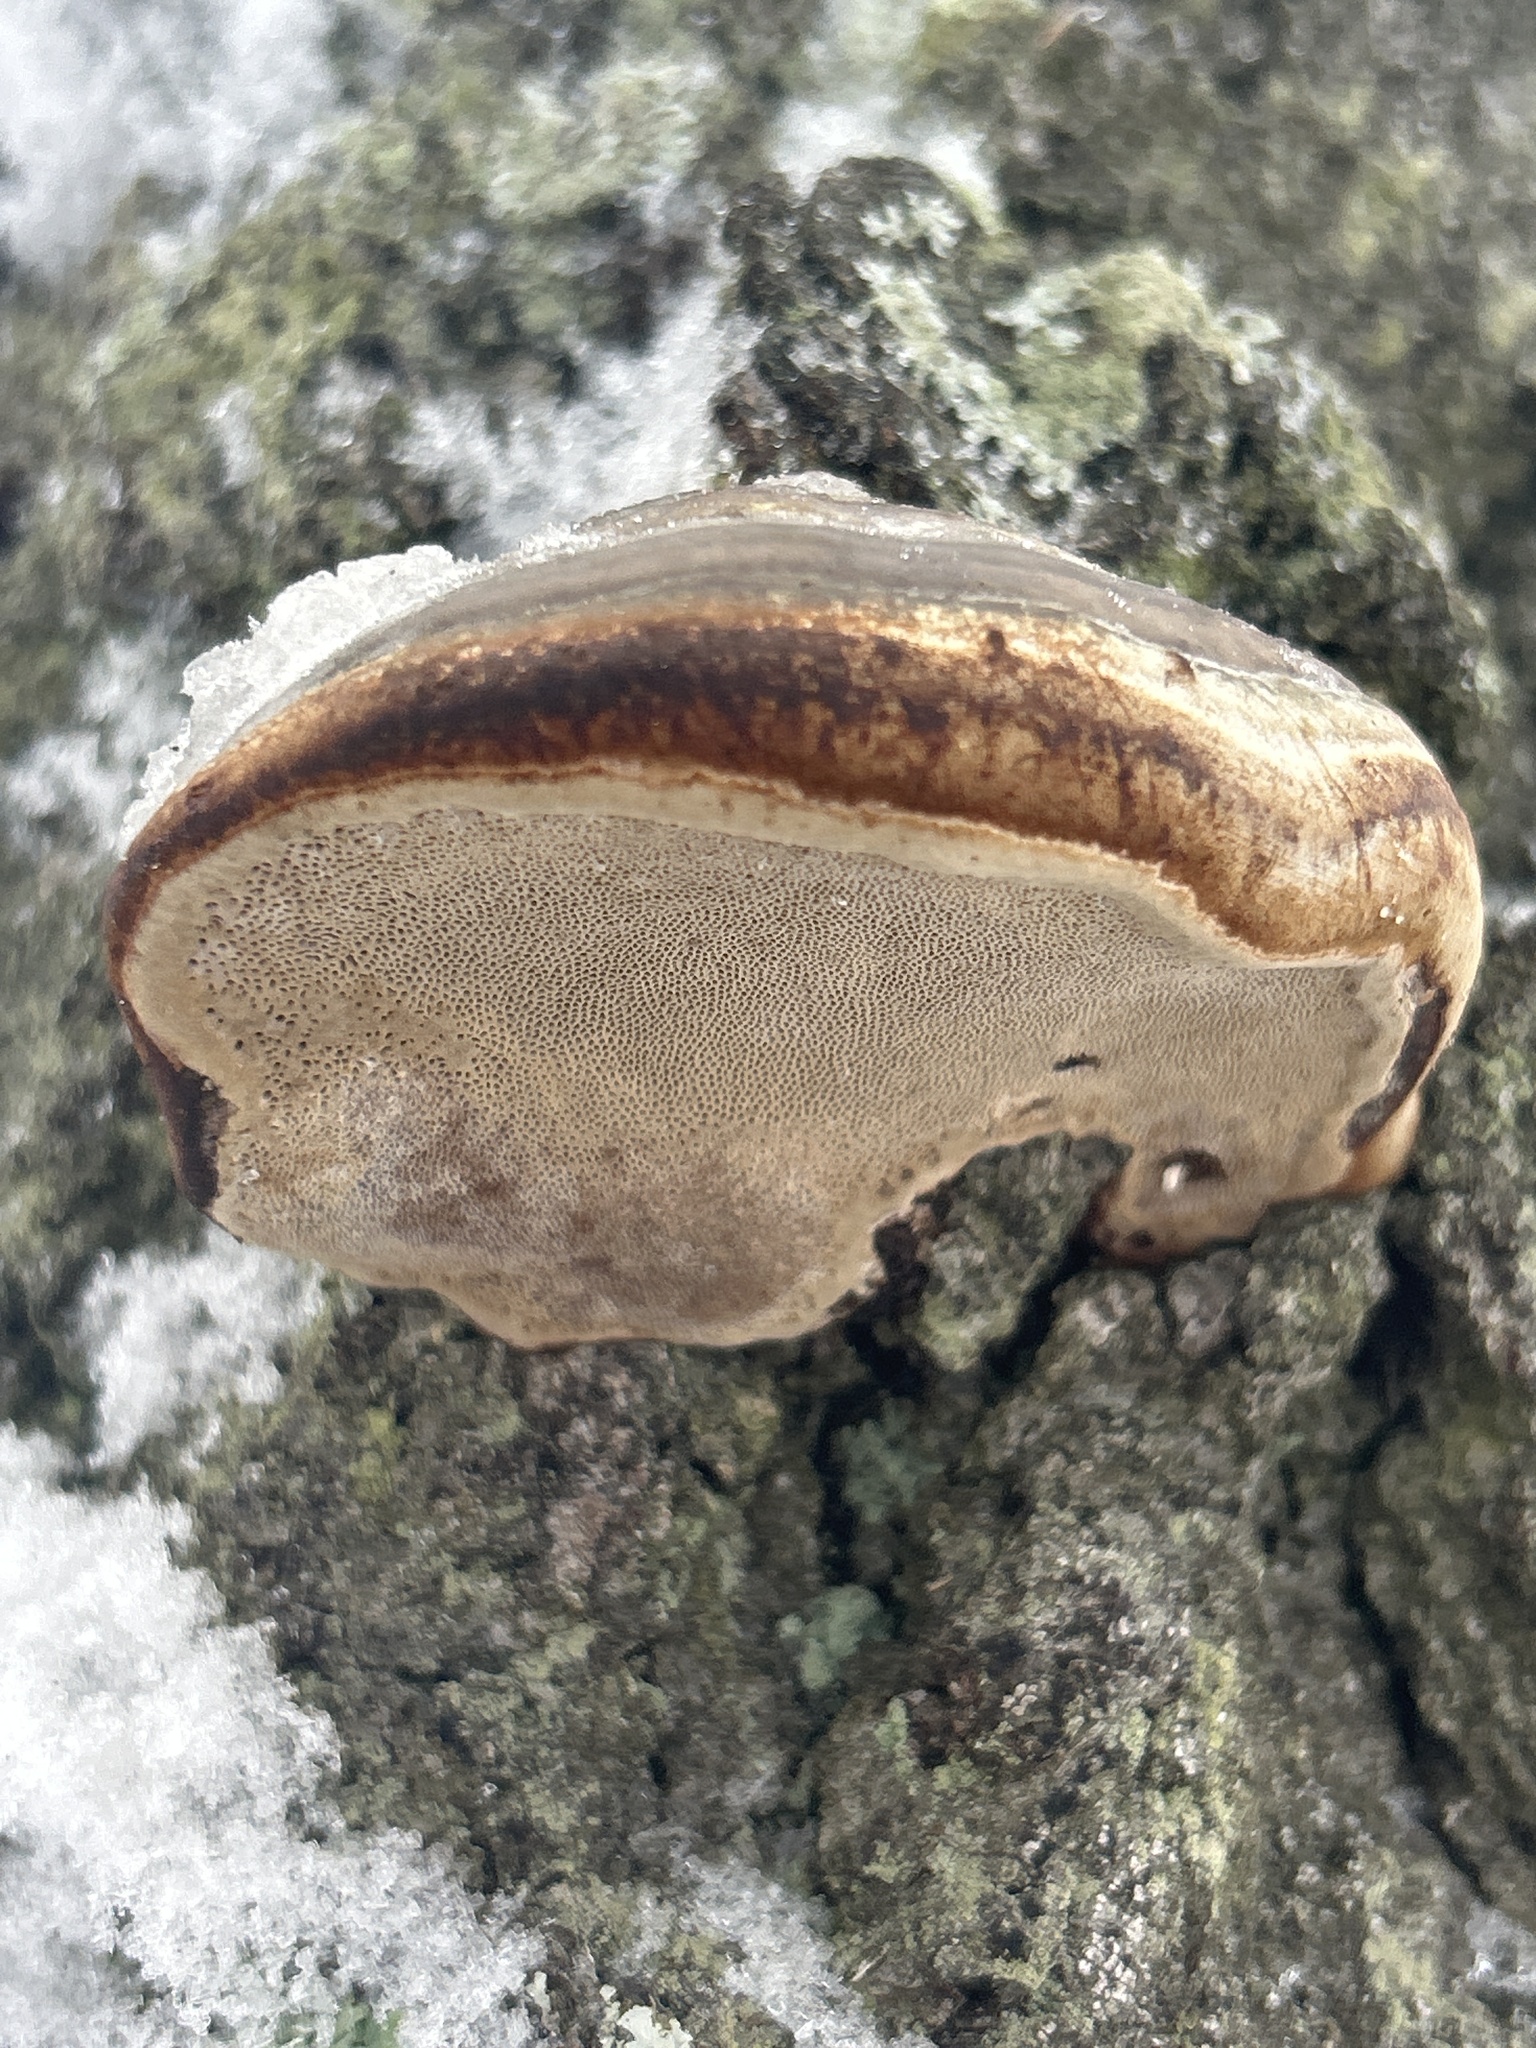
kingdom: Fungi
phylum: Basidiomycota
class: Agaricomycetes
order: Polyporales
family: Polyporaceae
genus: Fomes
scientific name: Fomes fomentarius
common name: Hoof fungus
